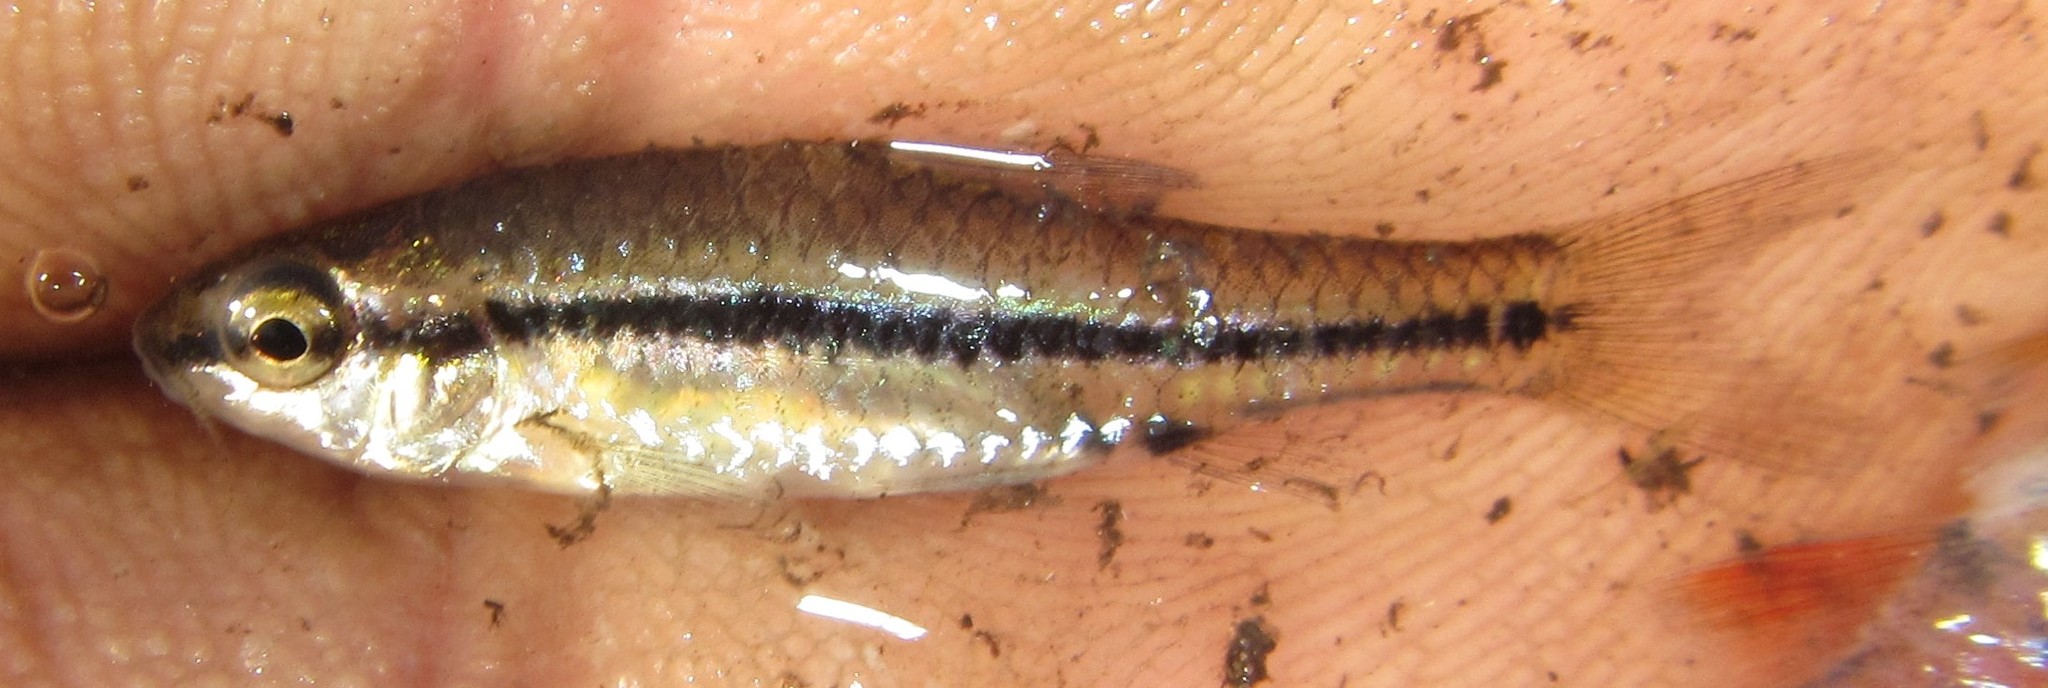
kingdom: Animalia
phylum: Chordata
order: Cypriniformes
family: Cyprinidae
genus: Enteromius
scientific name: Enteromius barnardi
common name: Blackback barb
